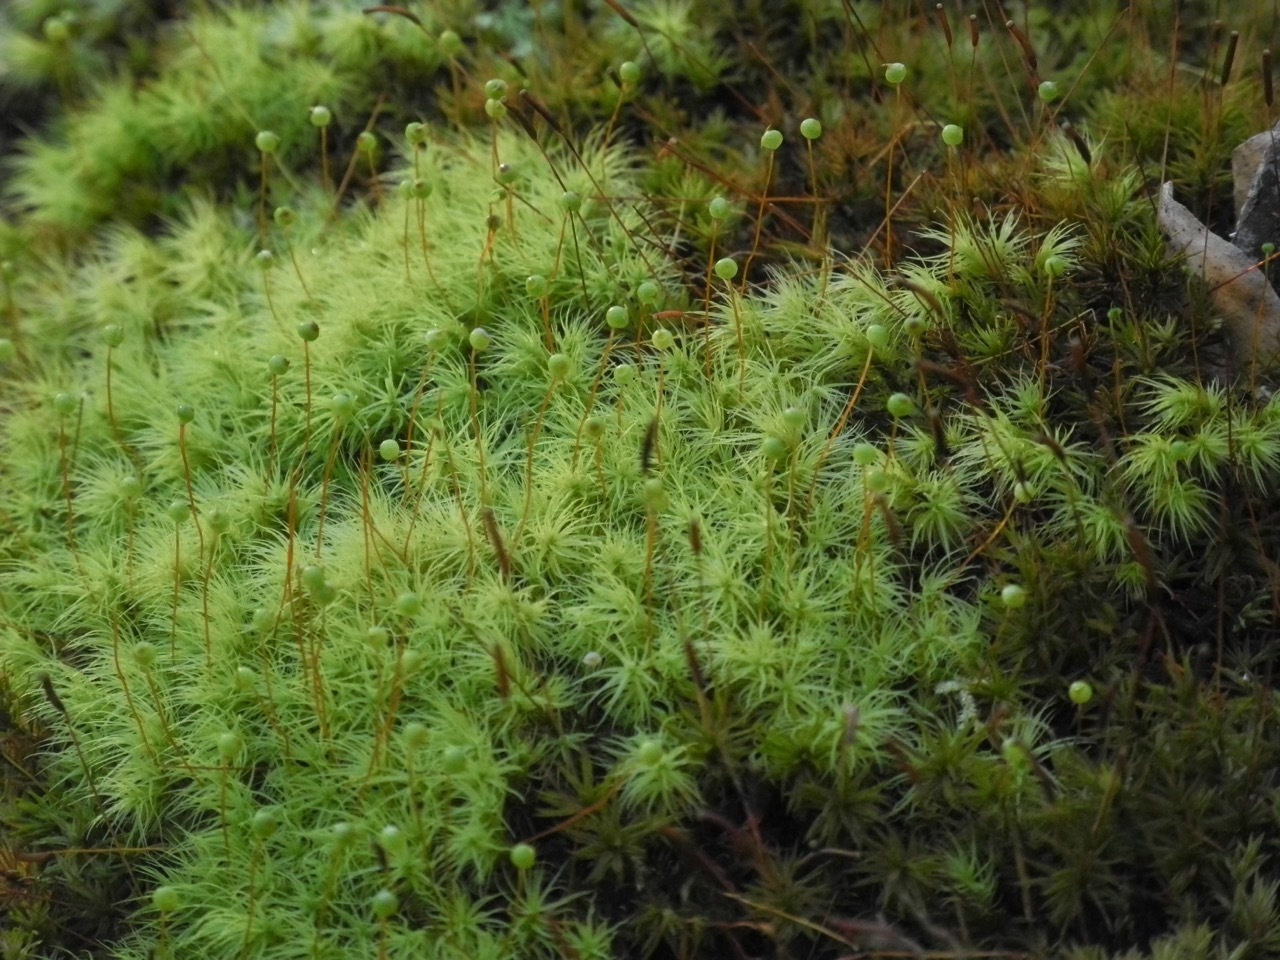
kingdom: Plantae
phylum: Bryophyta
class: Bryopsida
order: Bartramiales
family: Bartramiaceae
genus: Bartramia
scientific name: Bartramia ithyphylla
